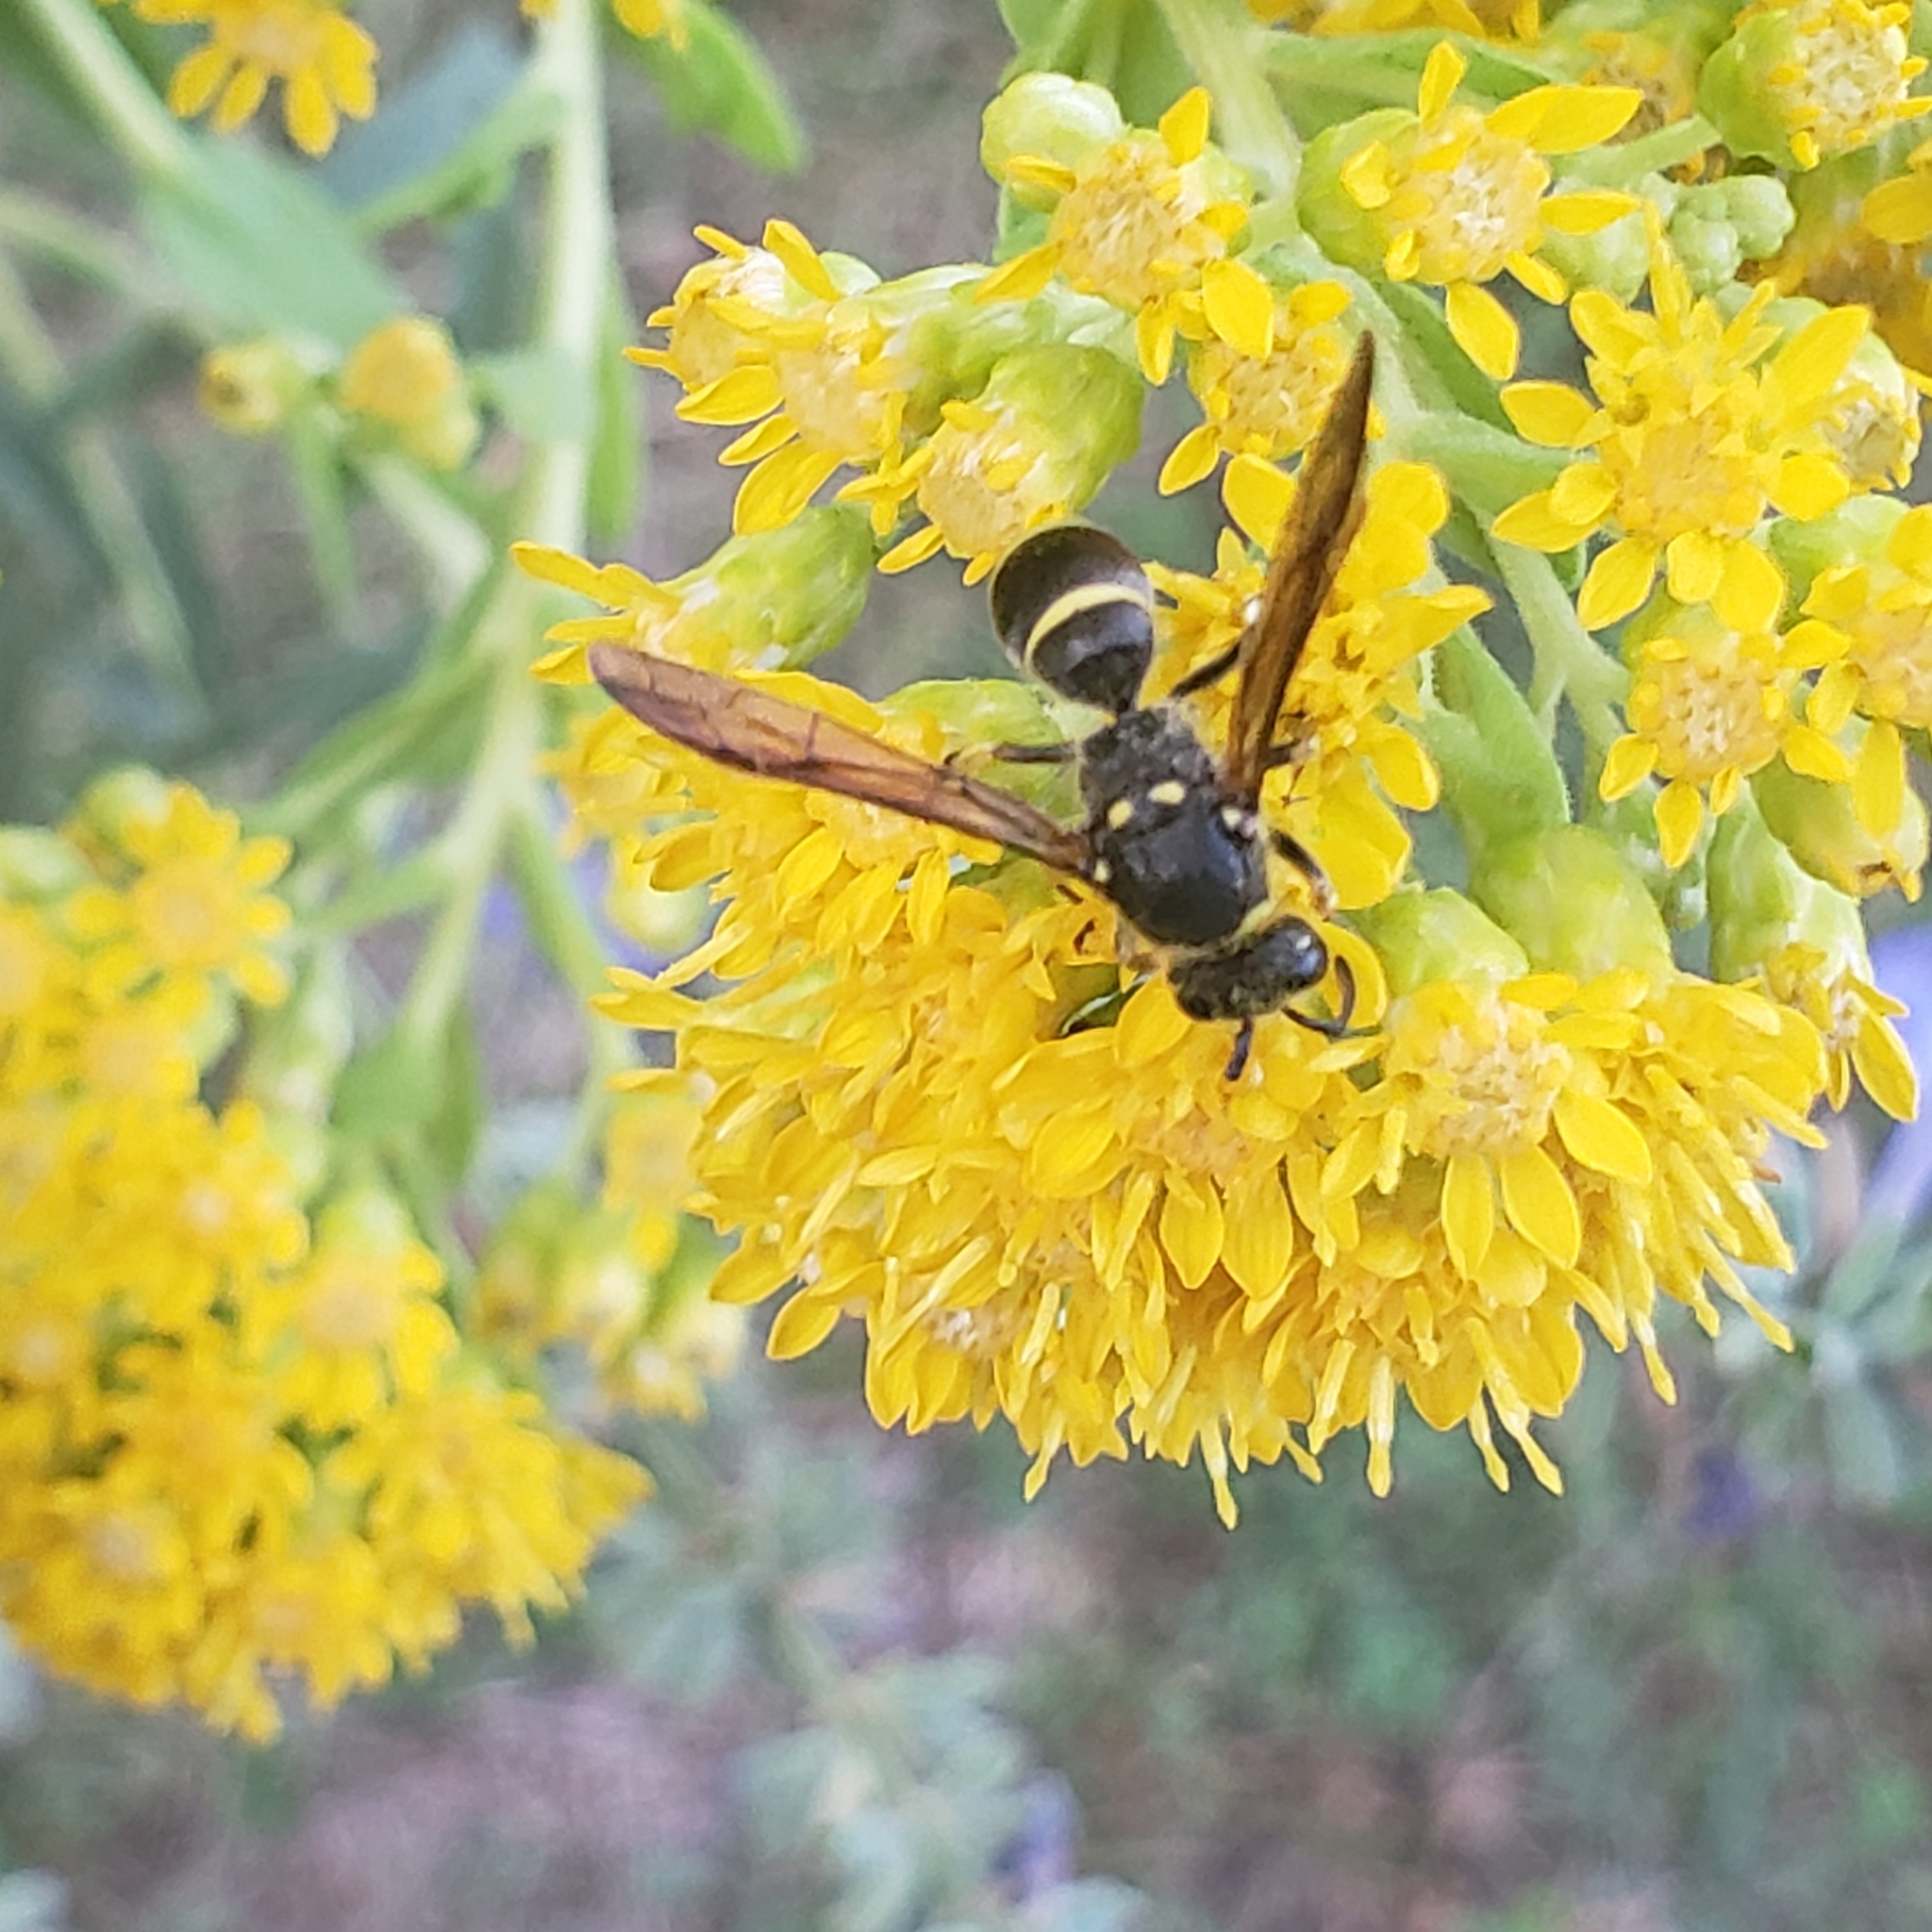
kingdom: Animalia
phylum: Arthropoda
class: Insecta
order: Hymenoptera
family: Vespidae
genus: Ancistrocerus
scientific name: Ancistrocerus
